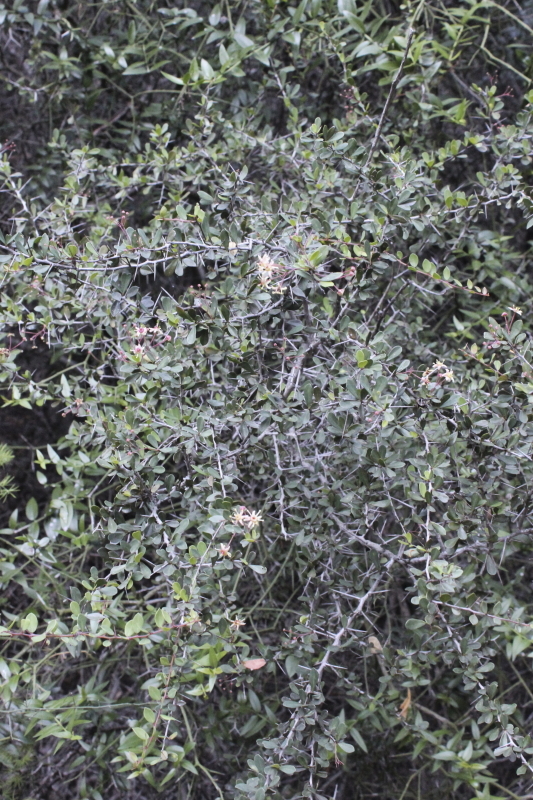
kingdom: Plantae
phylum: Tracheophyta
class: Magnoliopsida
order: Celastrales
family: Celastraceae
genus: Putterlickia
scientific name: Putterlickia pyracantha
